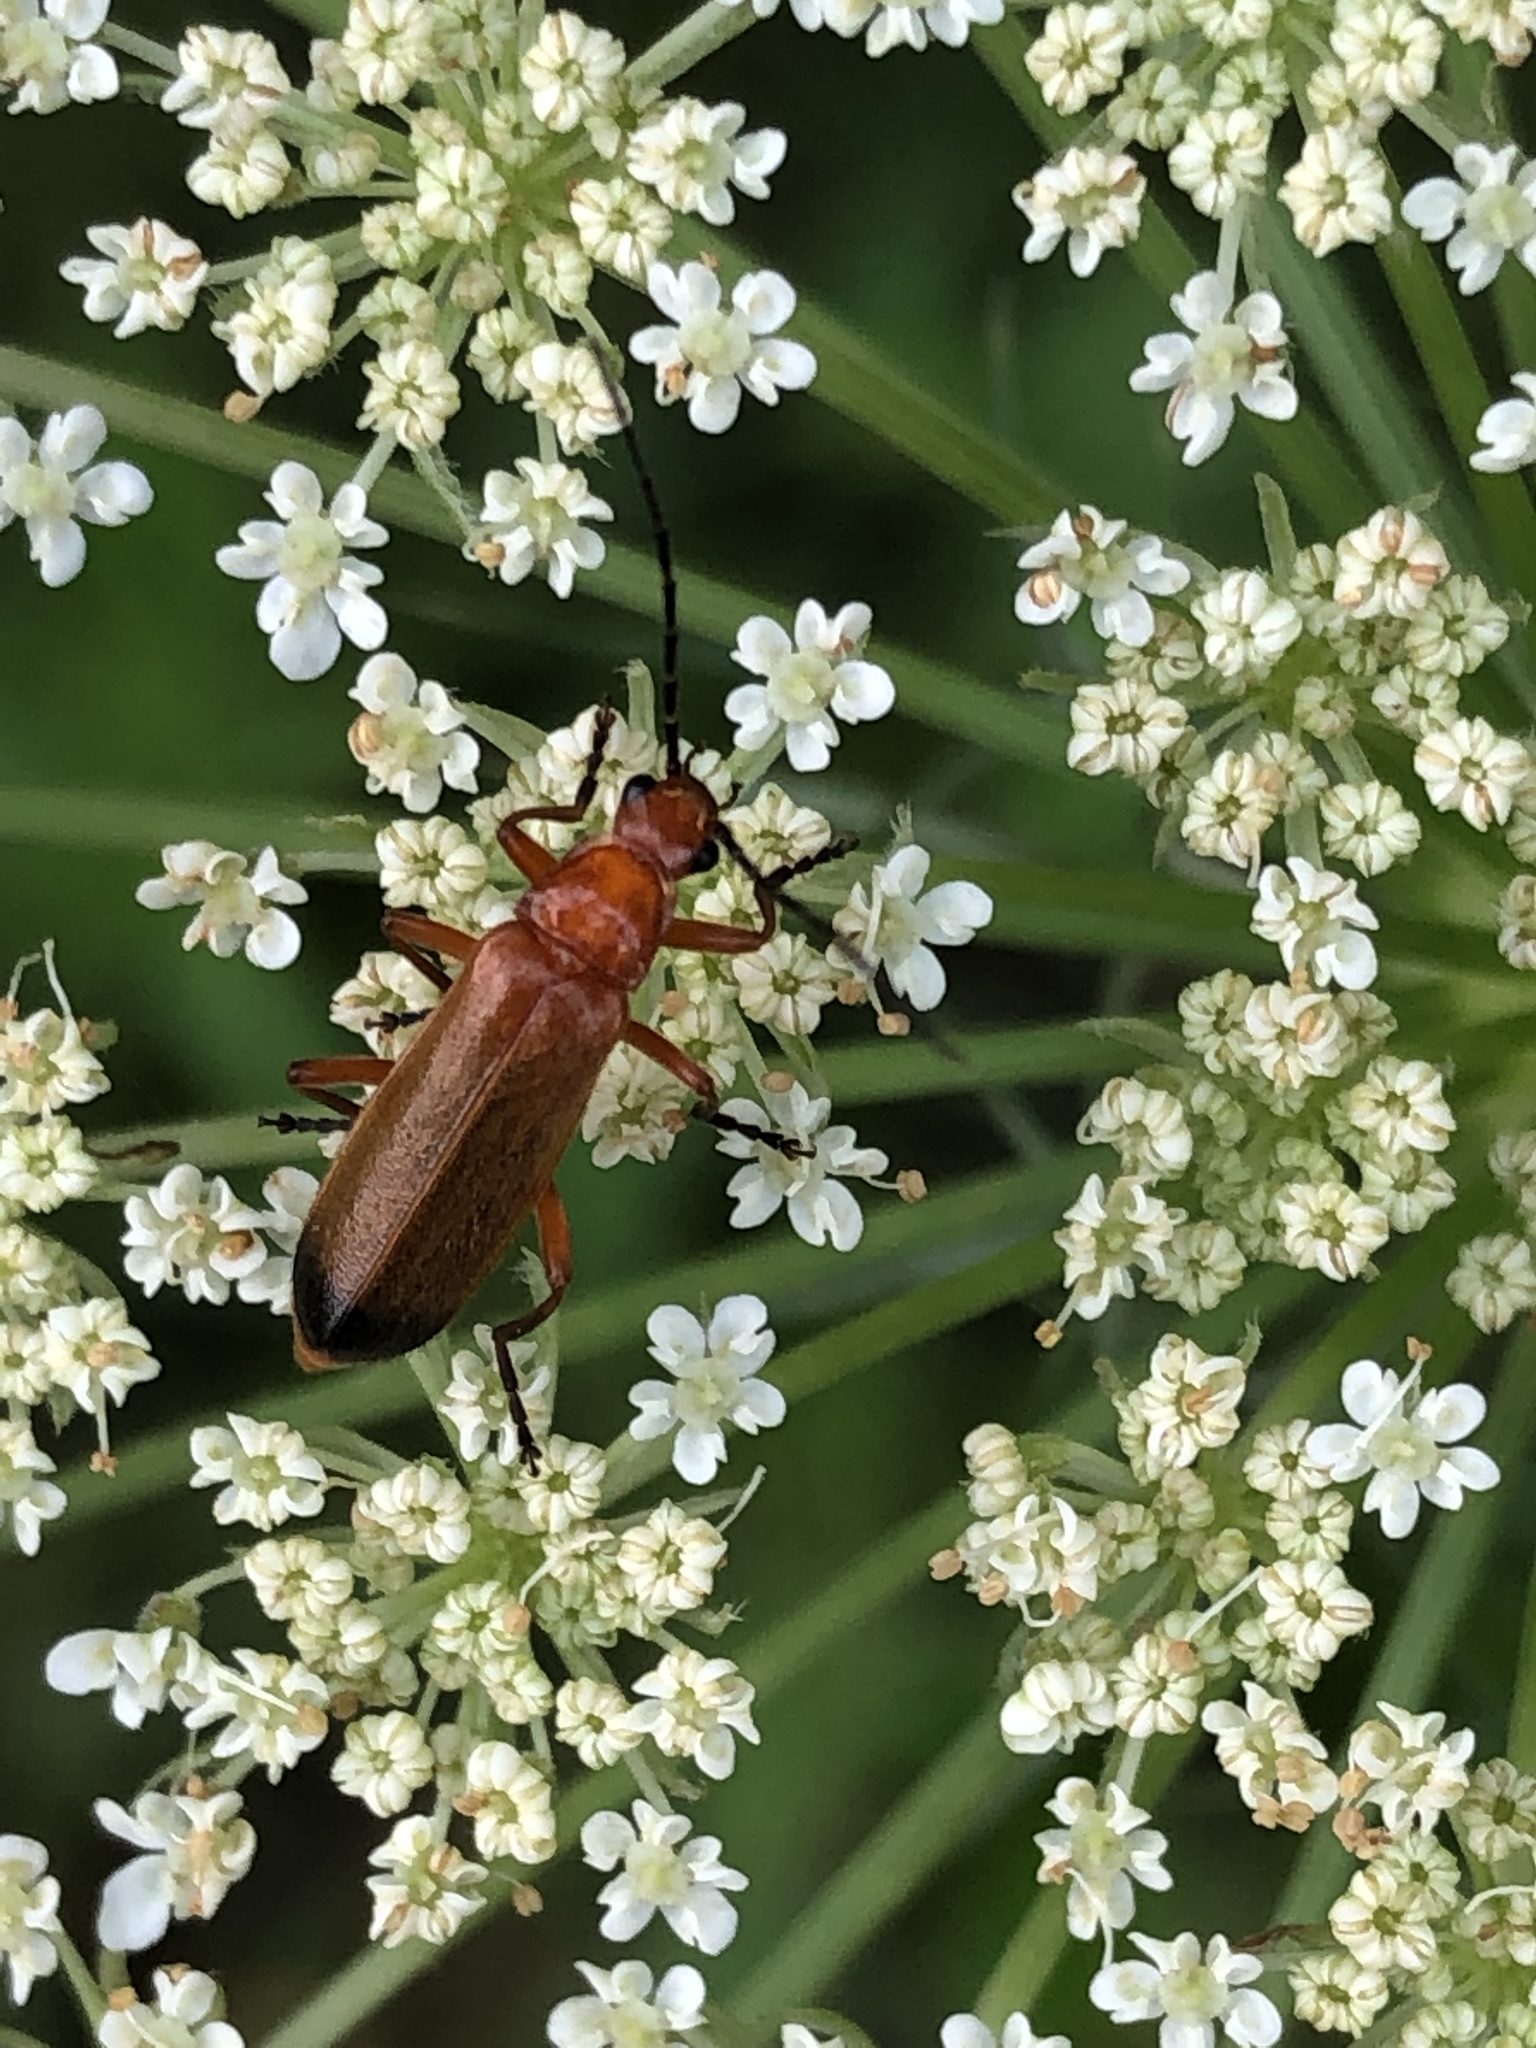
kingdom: Animalia
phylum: Arthropoda
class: Insecta
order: Coleoptera
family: Cantharidae
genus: Rhagonycha
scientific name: Rhagonycha fulva
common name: Common red soldier beetle
